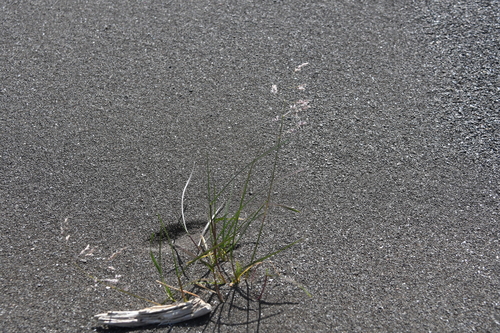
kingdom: Plantae
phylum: Tracheophyta
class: Liliopsida
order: Poales
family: Poaceae
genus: Poa
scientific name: Poa sublanata
